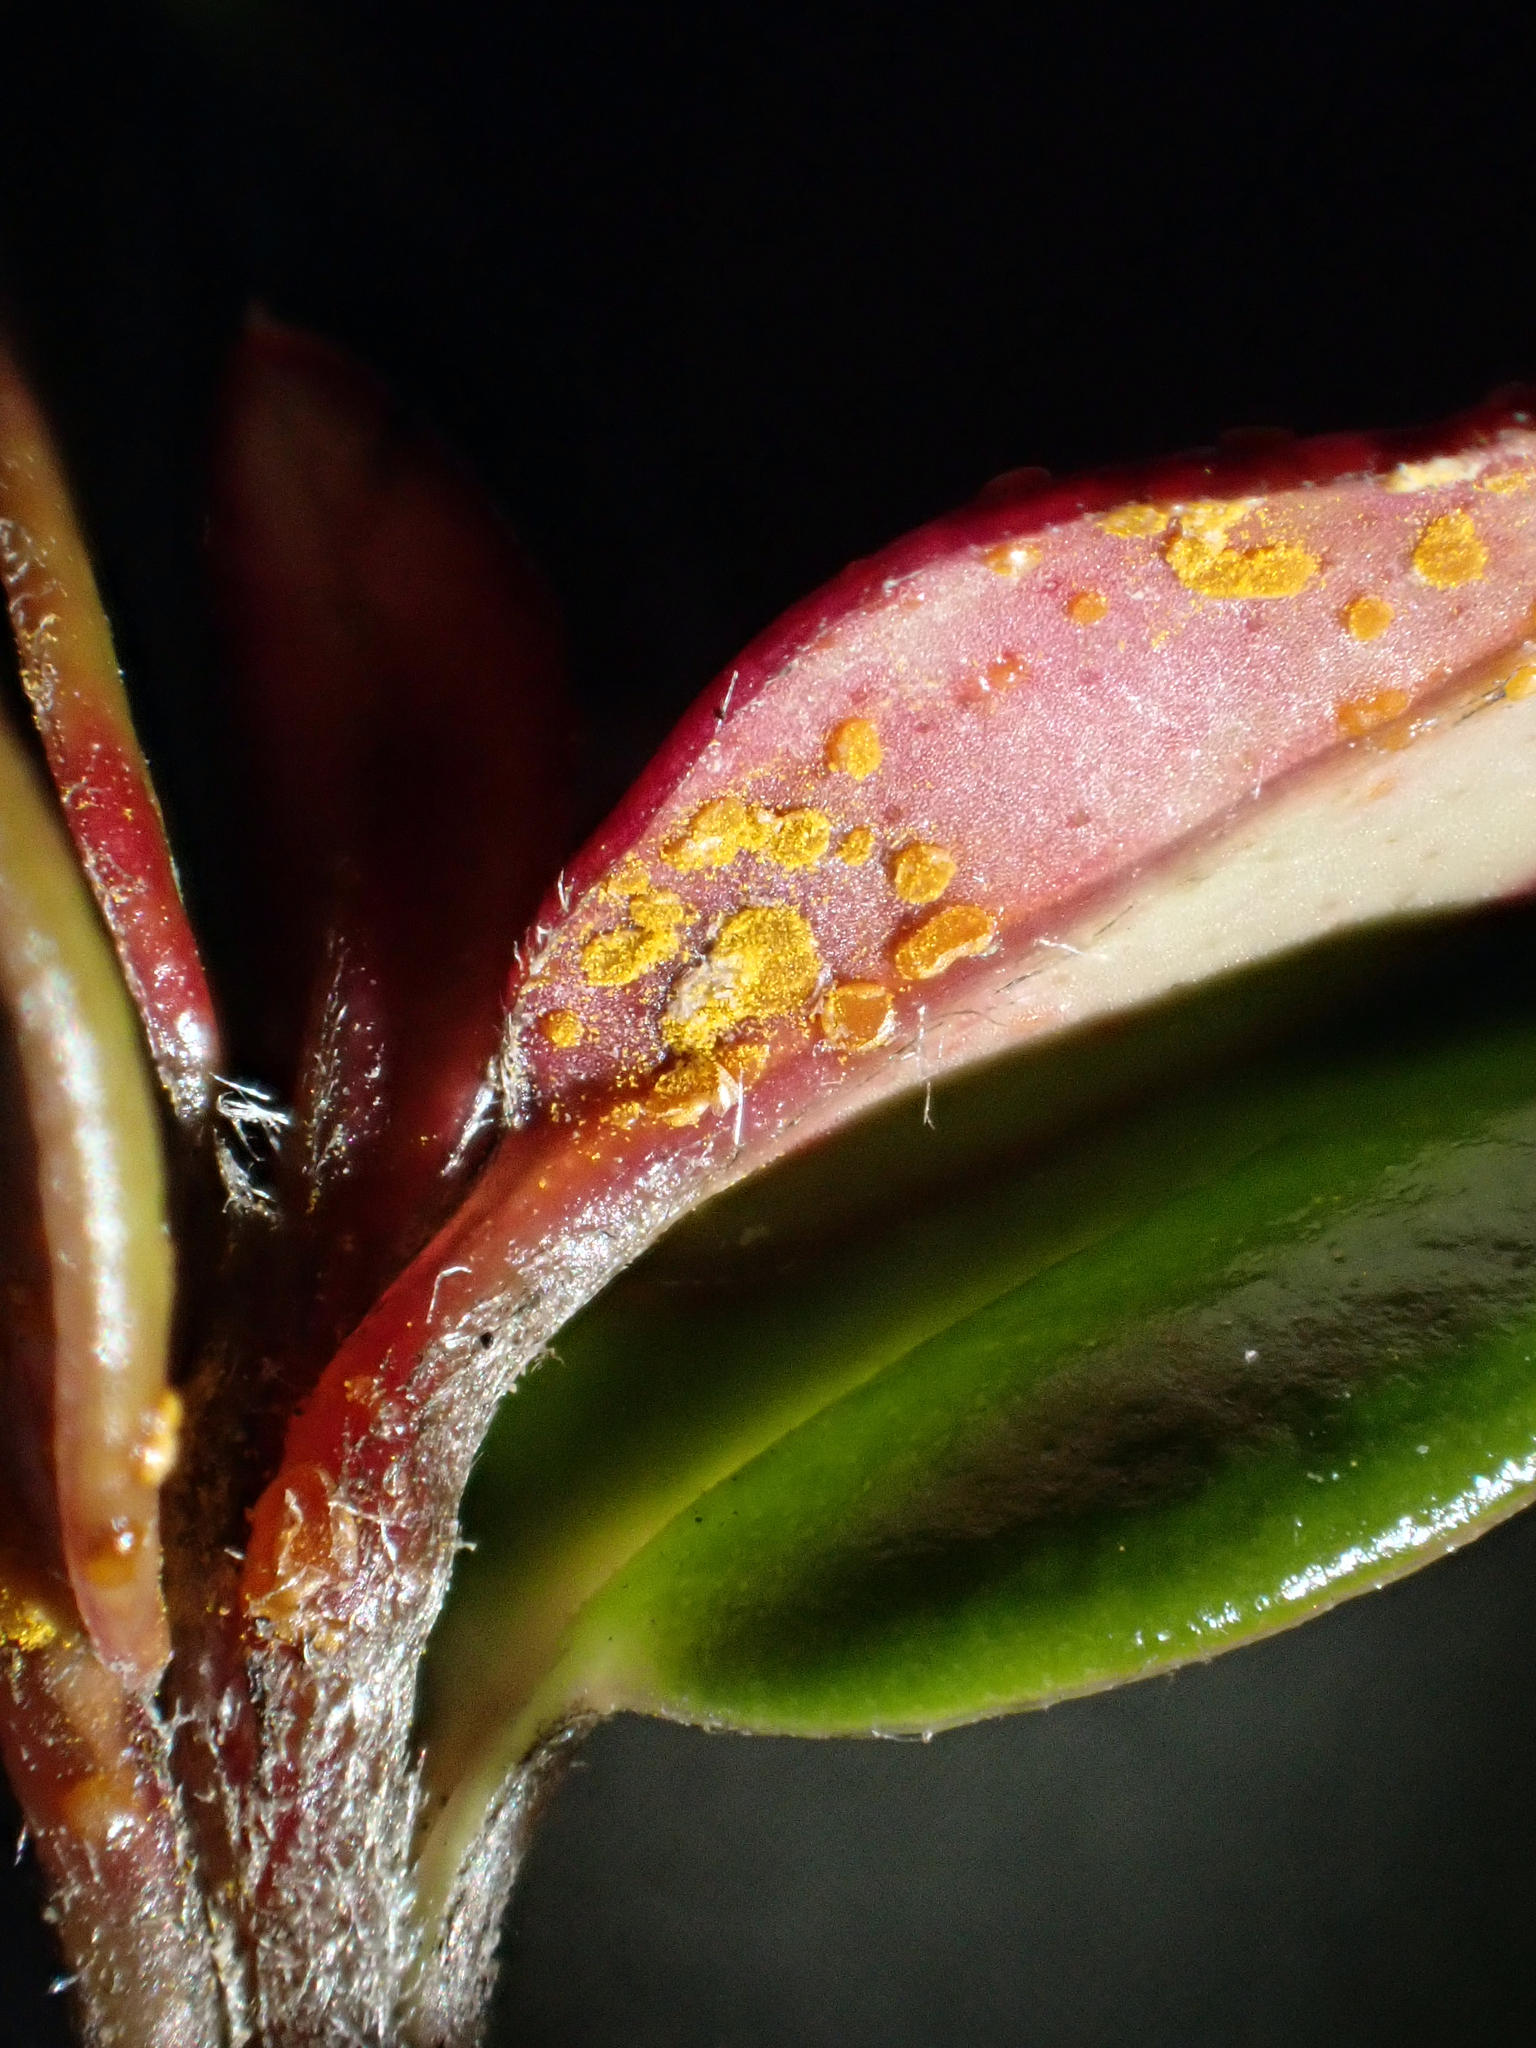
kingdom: Fungi
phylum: Basidiomycota
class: Pucciniomycetes
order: Pucciniales
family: Sphaerophragmiaceae
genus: Austropuccinia
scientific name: Austropuccinia psidii
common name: Myrtle rust
